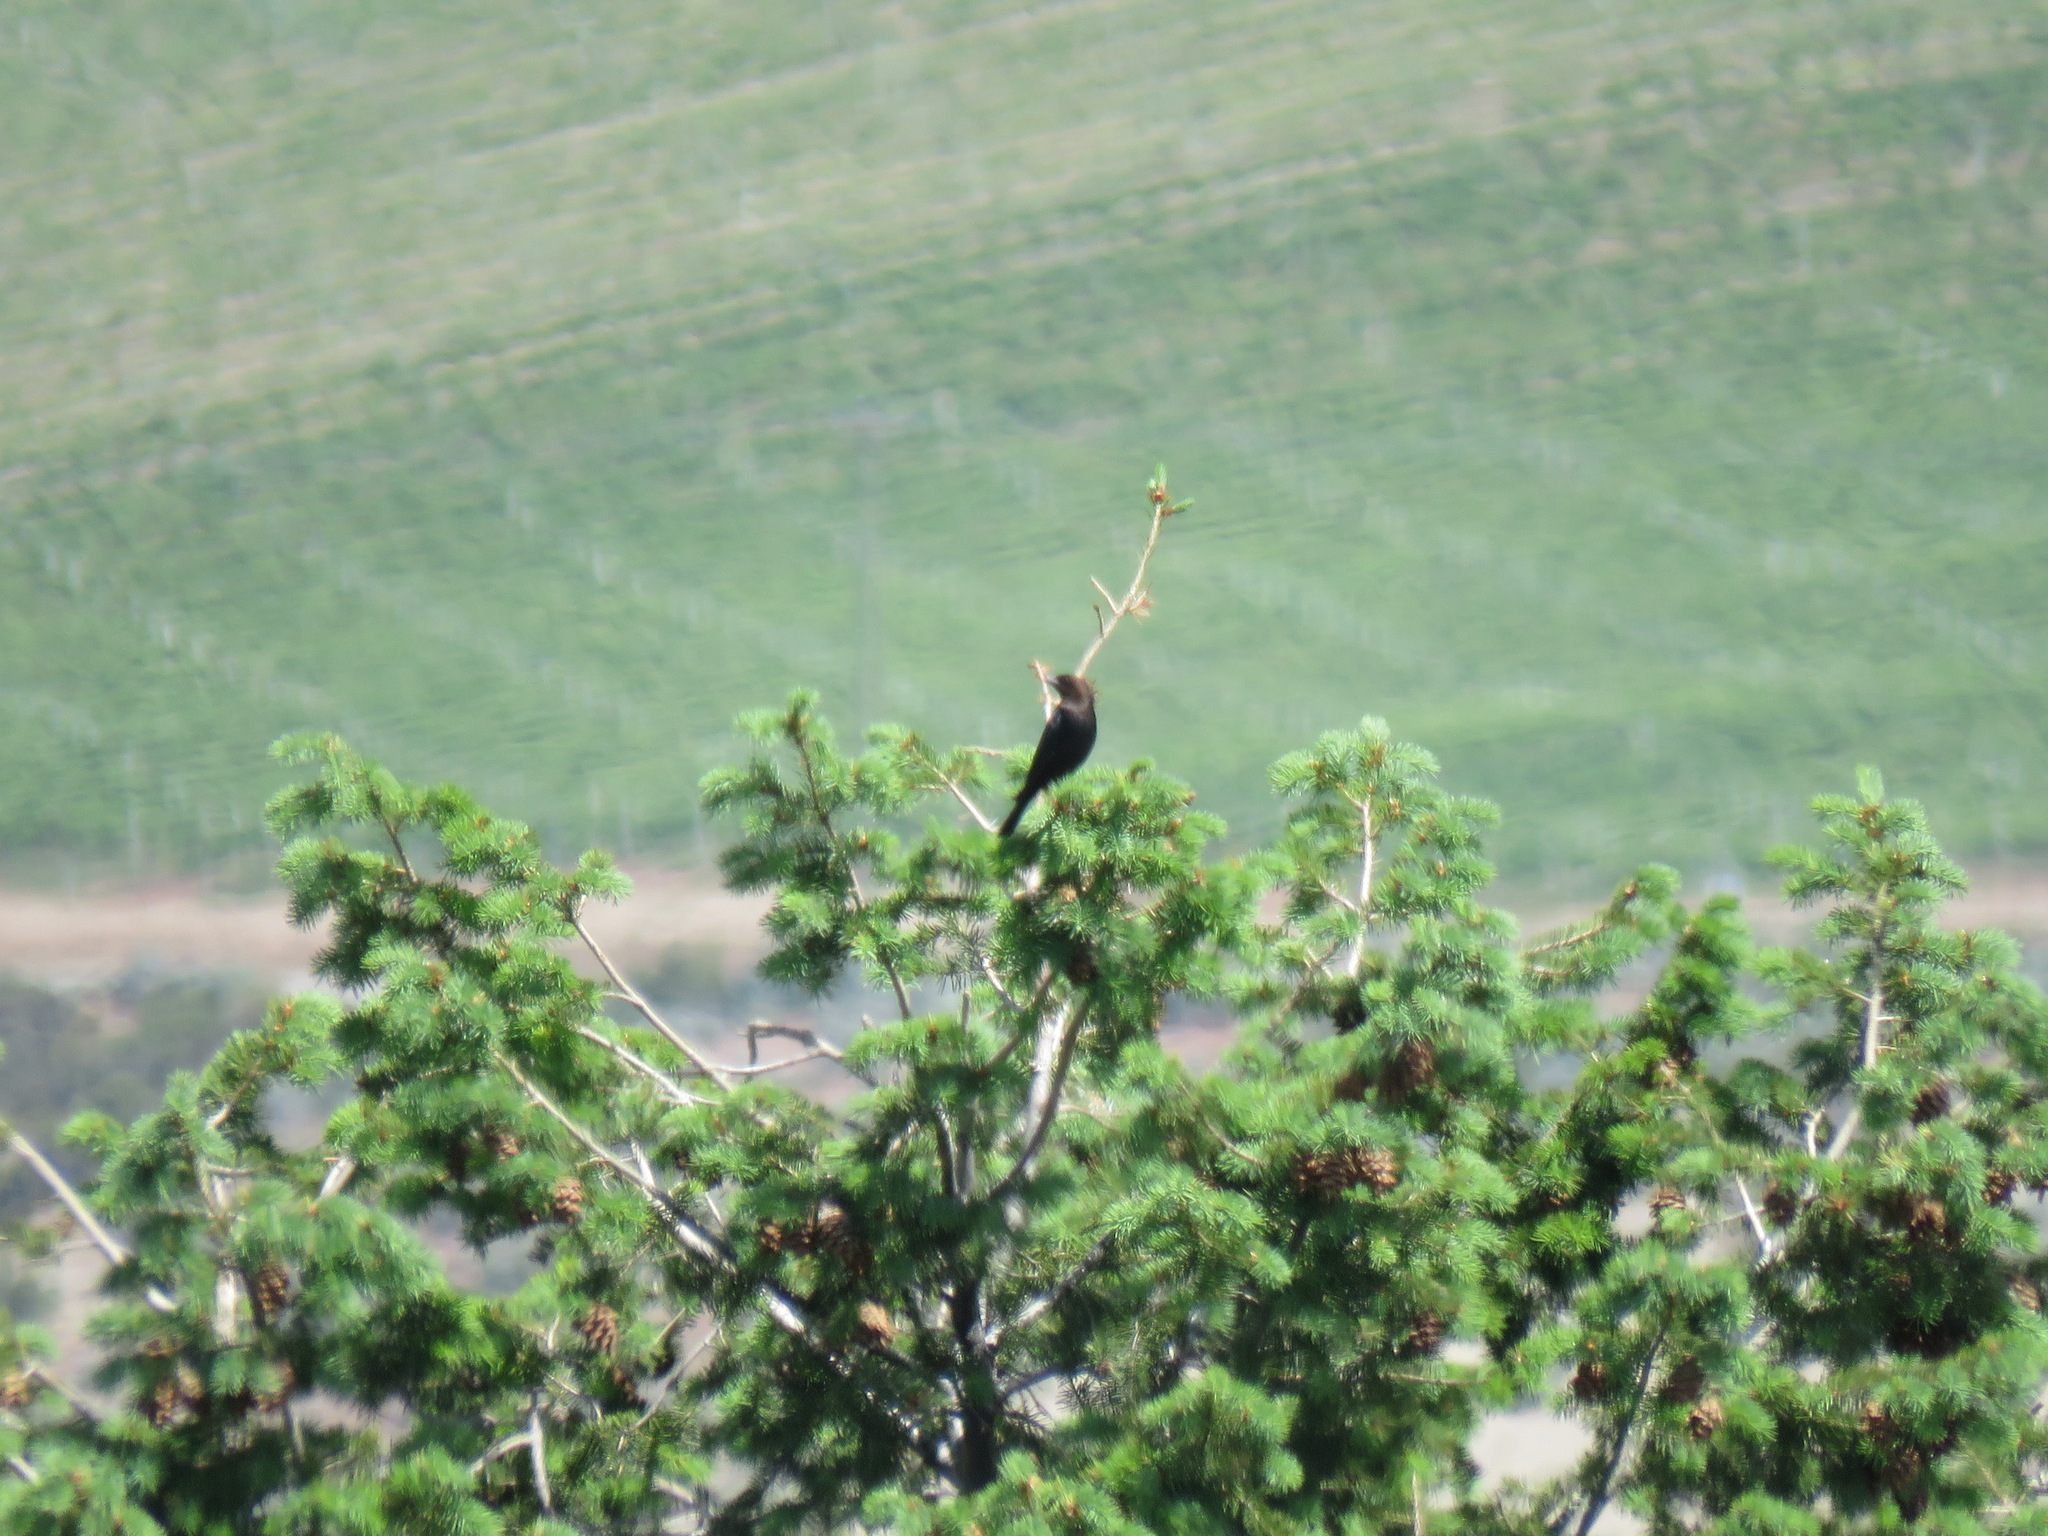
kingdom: Animalia
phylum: Chordata
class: Aves
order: Passeriformes
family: Icteridae
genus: Molothrus
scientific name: Molothrus ater
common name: Brown-headed cowbird
